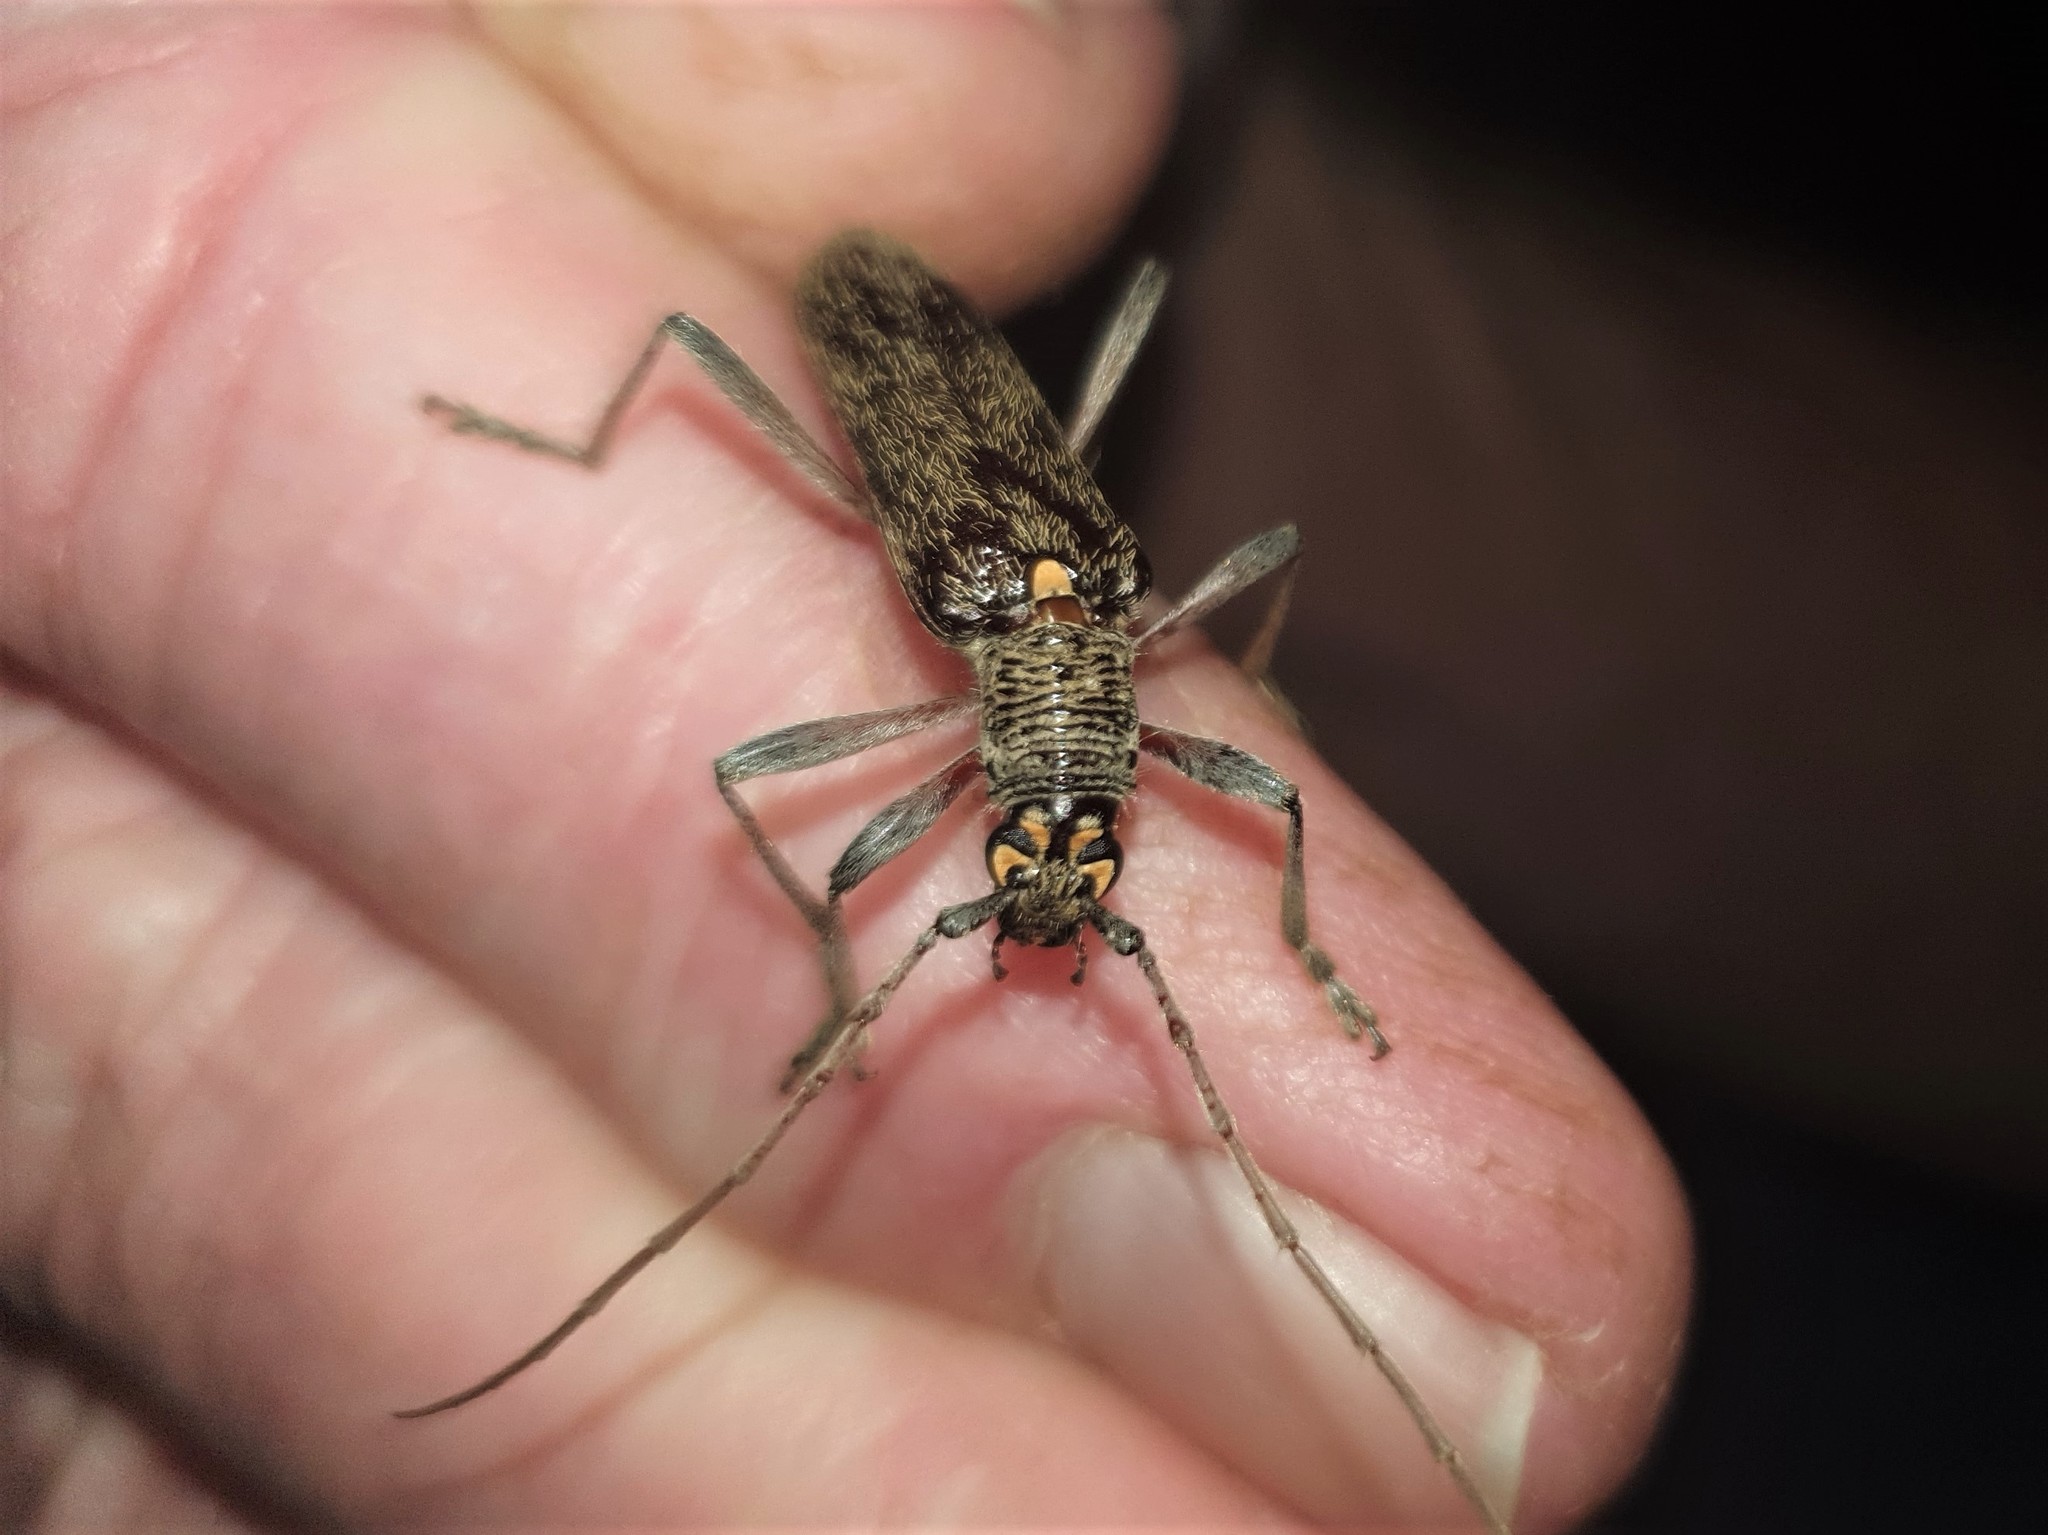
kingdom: Animalia
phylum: Arthropoda
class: Insecta
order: Coleoptera
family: Cerambycidae
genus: Oemona
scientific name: Oemona hirta
